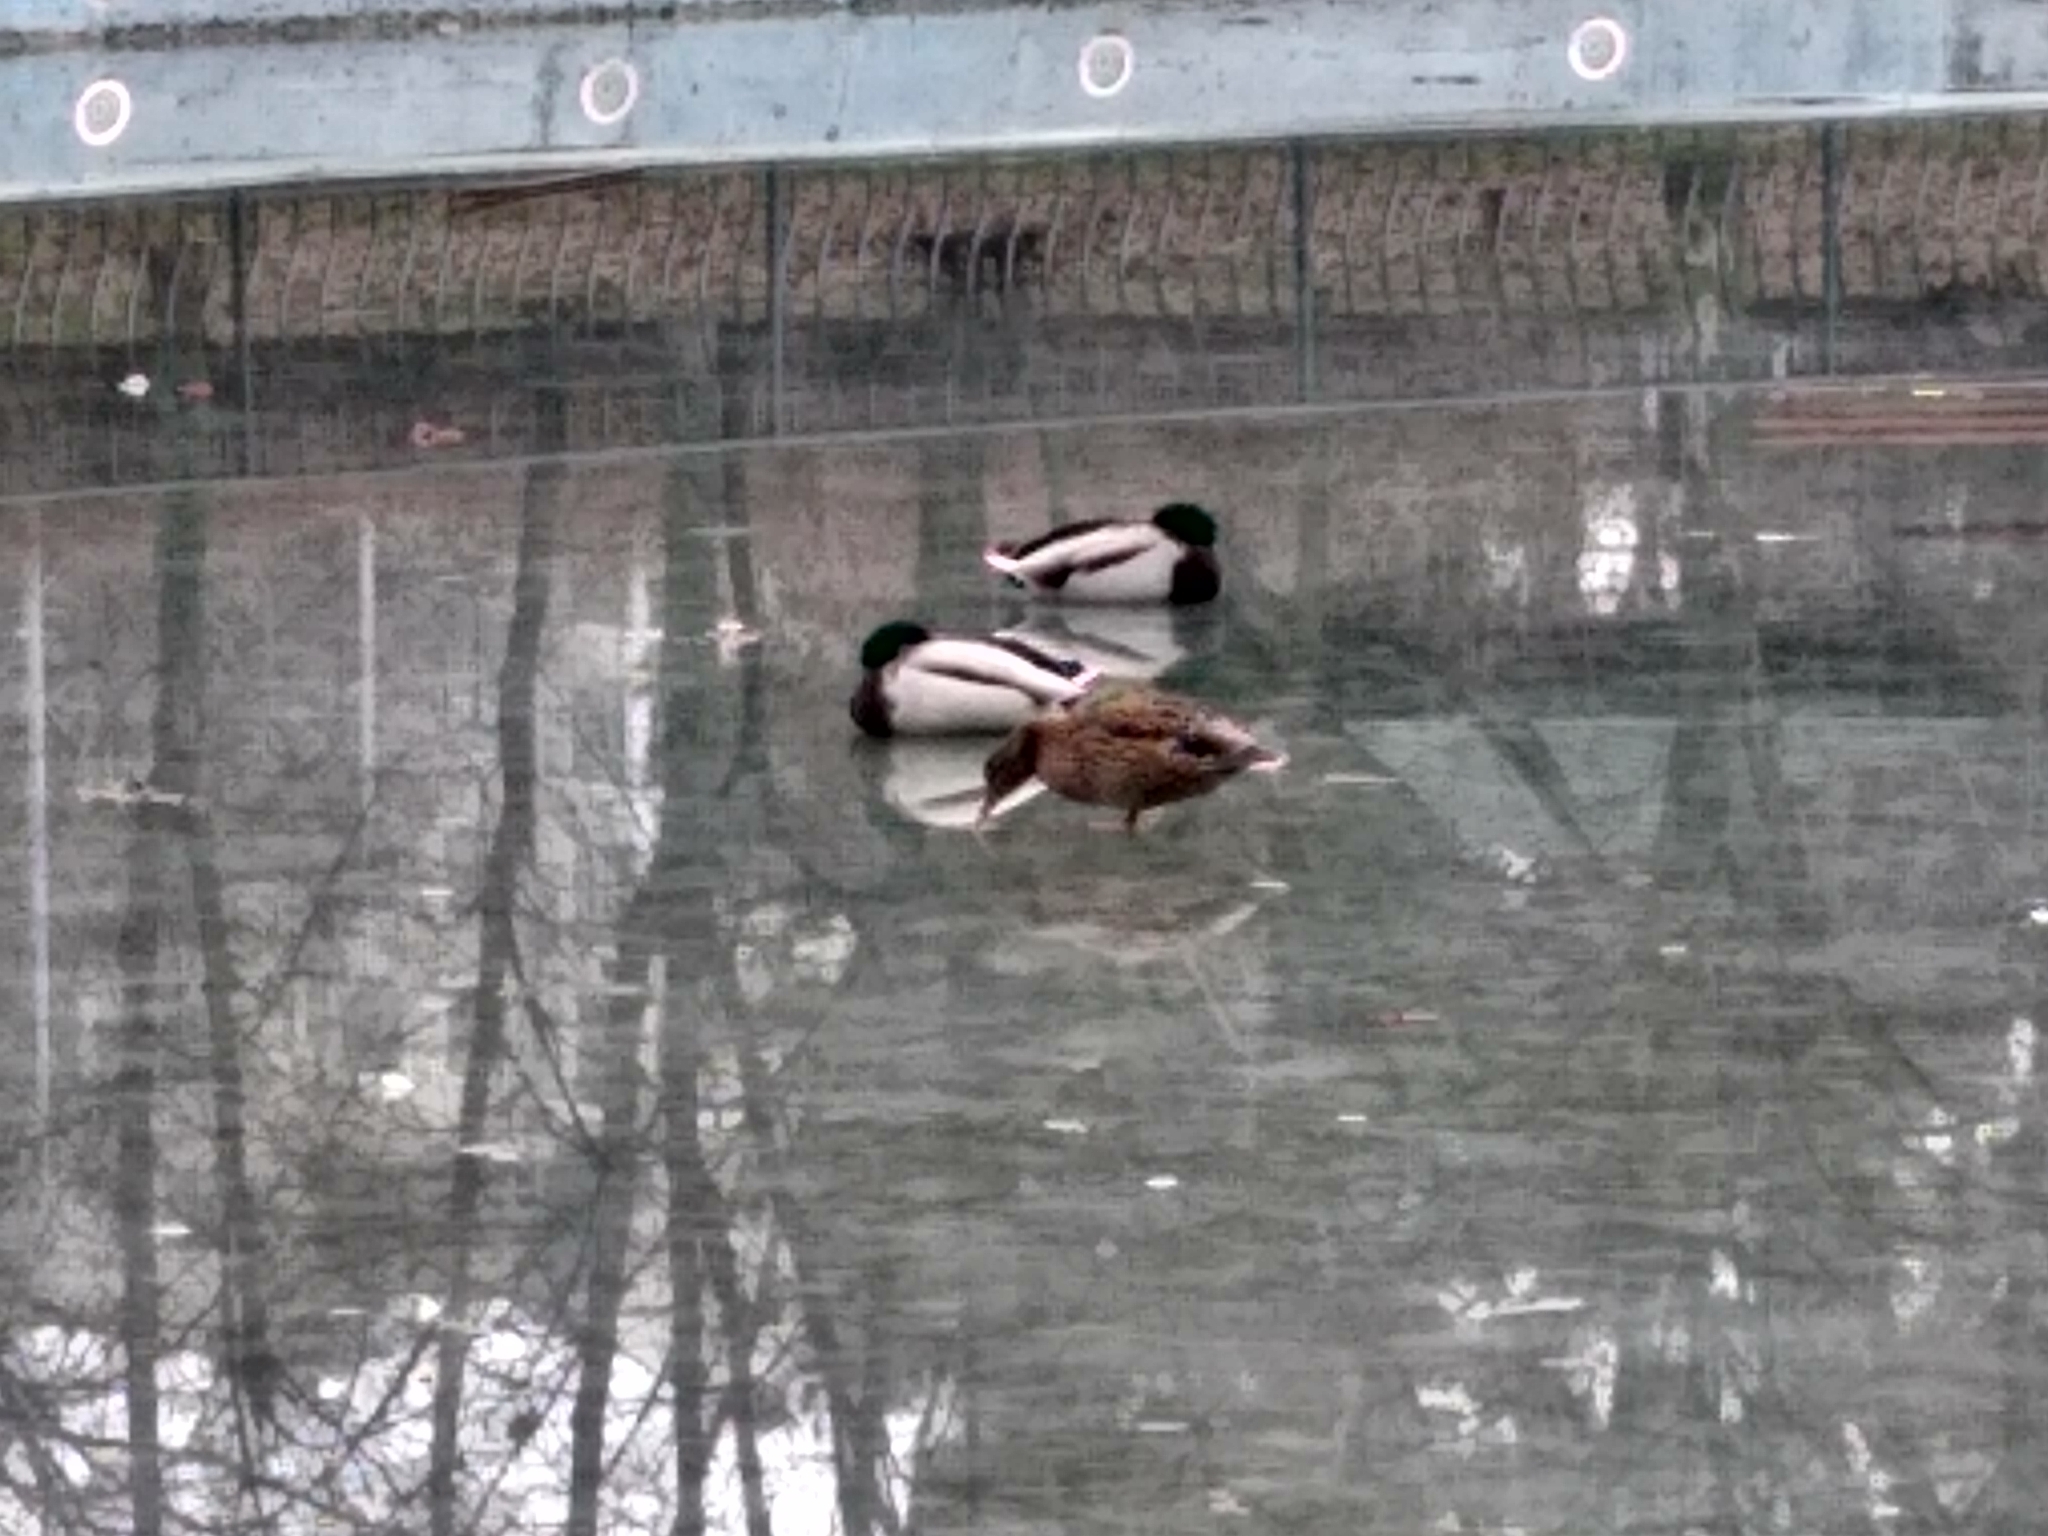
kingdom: Animalia
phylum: Chordata
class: Aves
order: Anseriformes
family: Anatidae
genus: Anas
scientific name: Anas platyrhynchos
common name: Mallard
